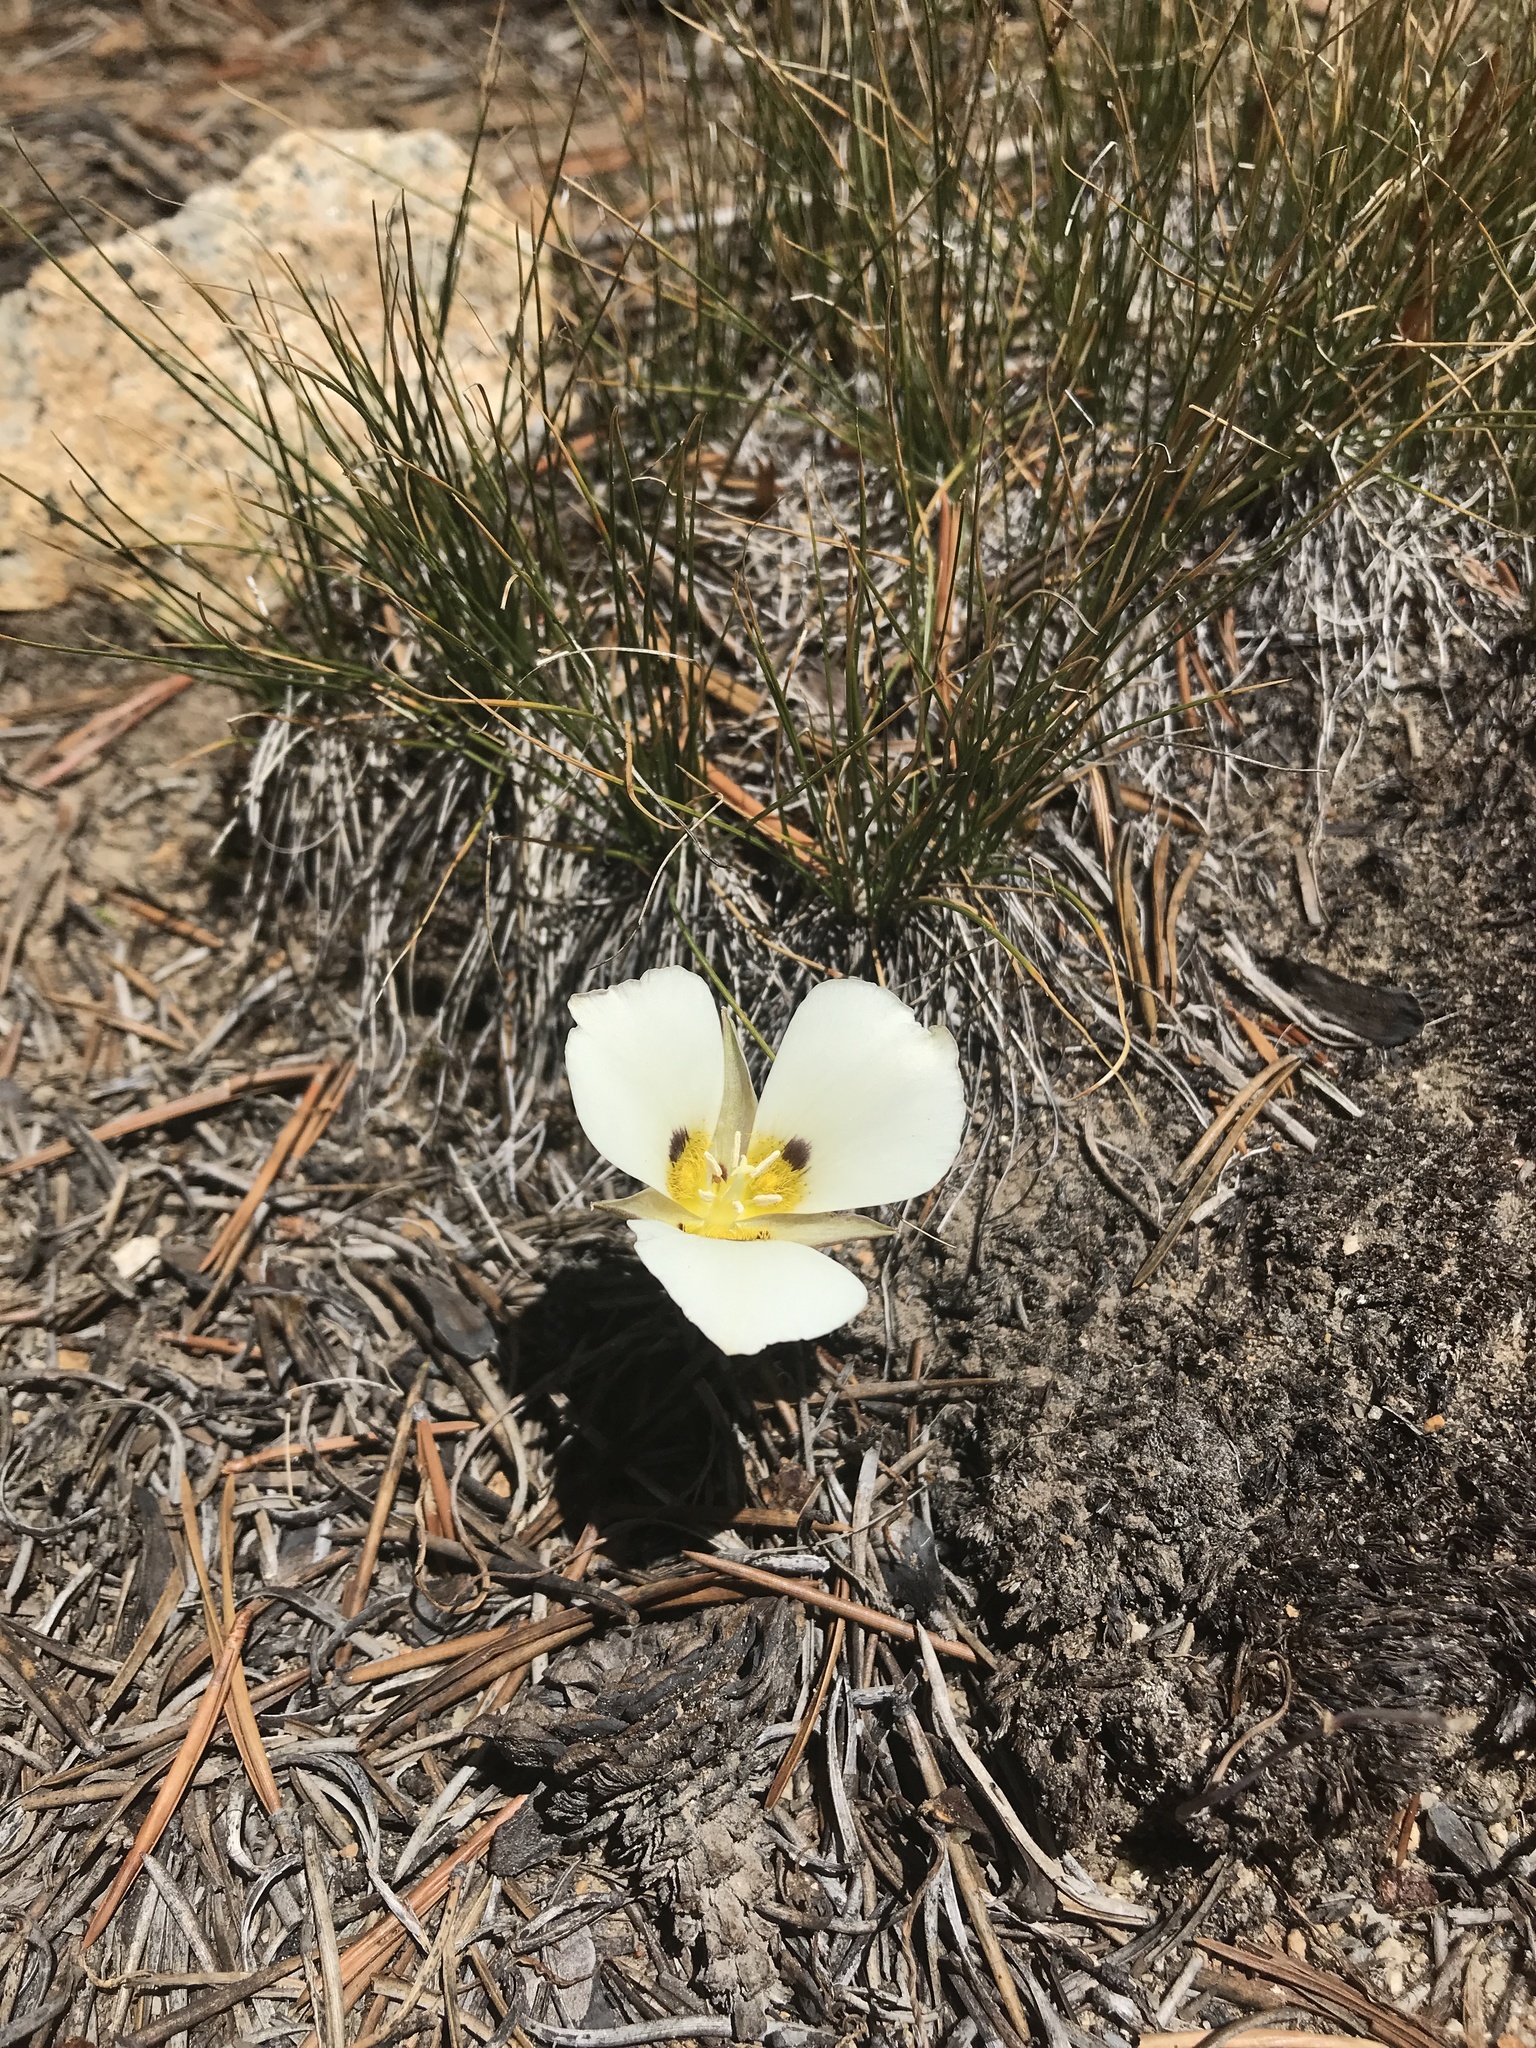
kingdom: Plantae
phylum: Tracheophyta
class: Liliopsida
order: Liliales
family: Liliaceae
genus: Calochortus
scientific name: Calochortus leichtlinii
